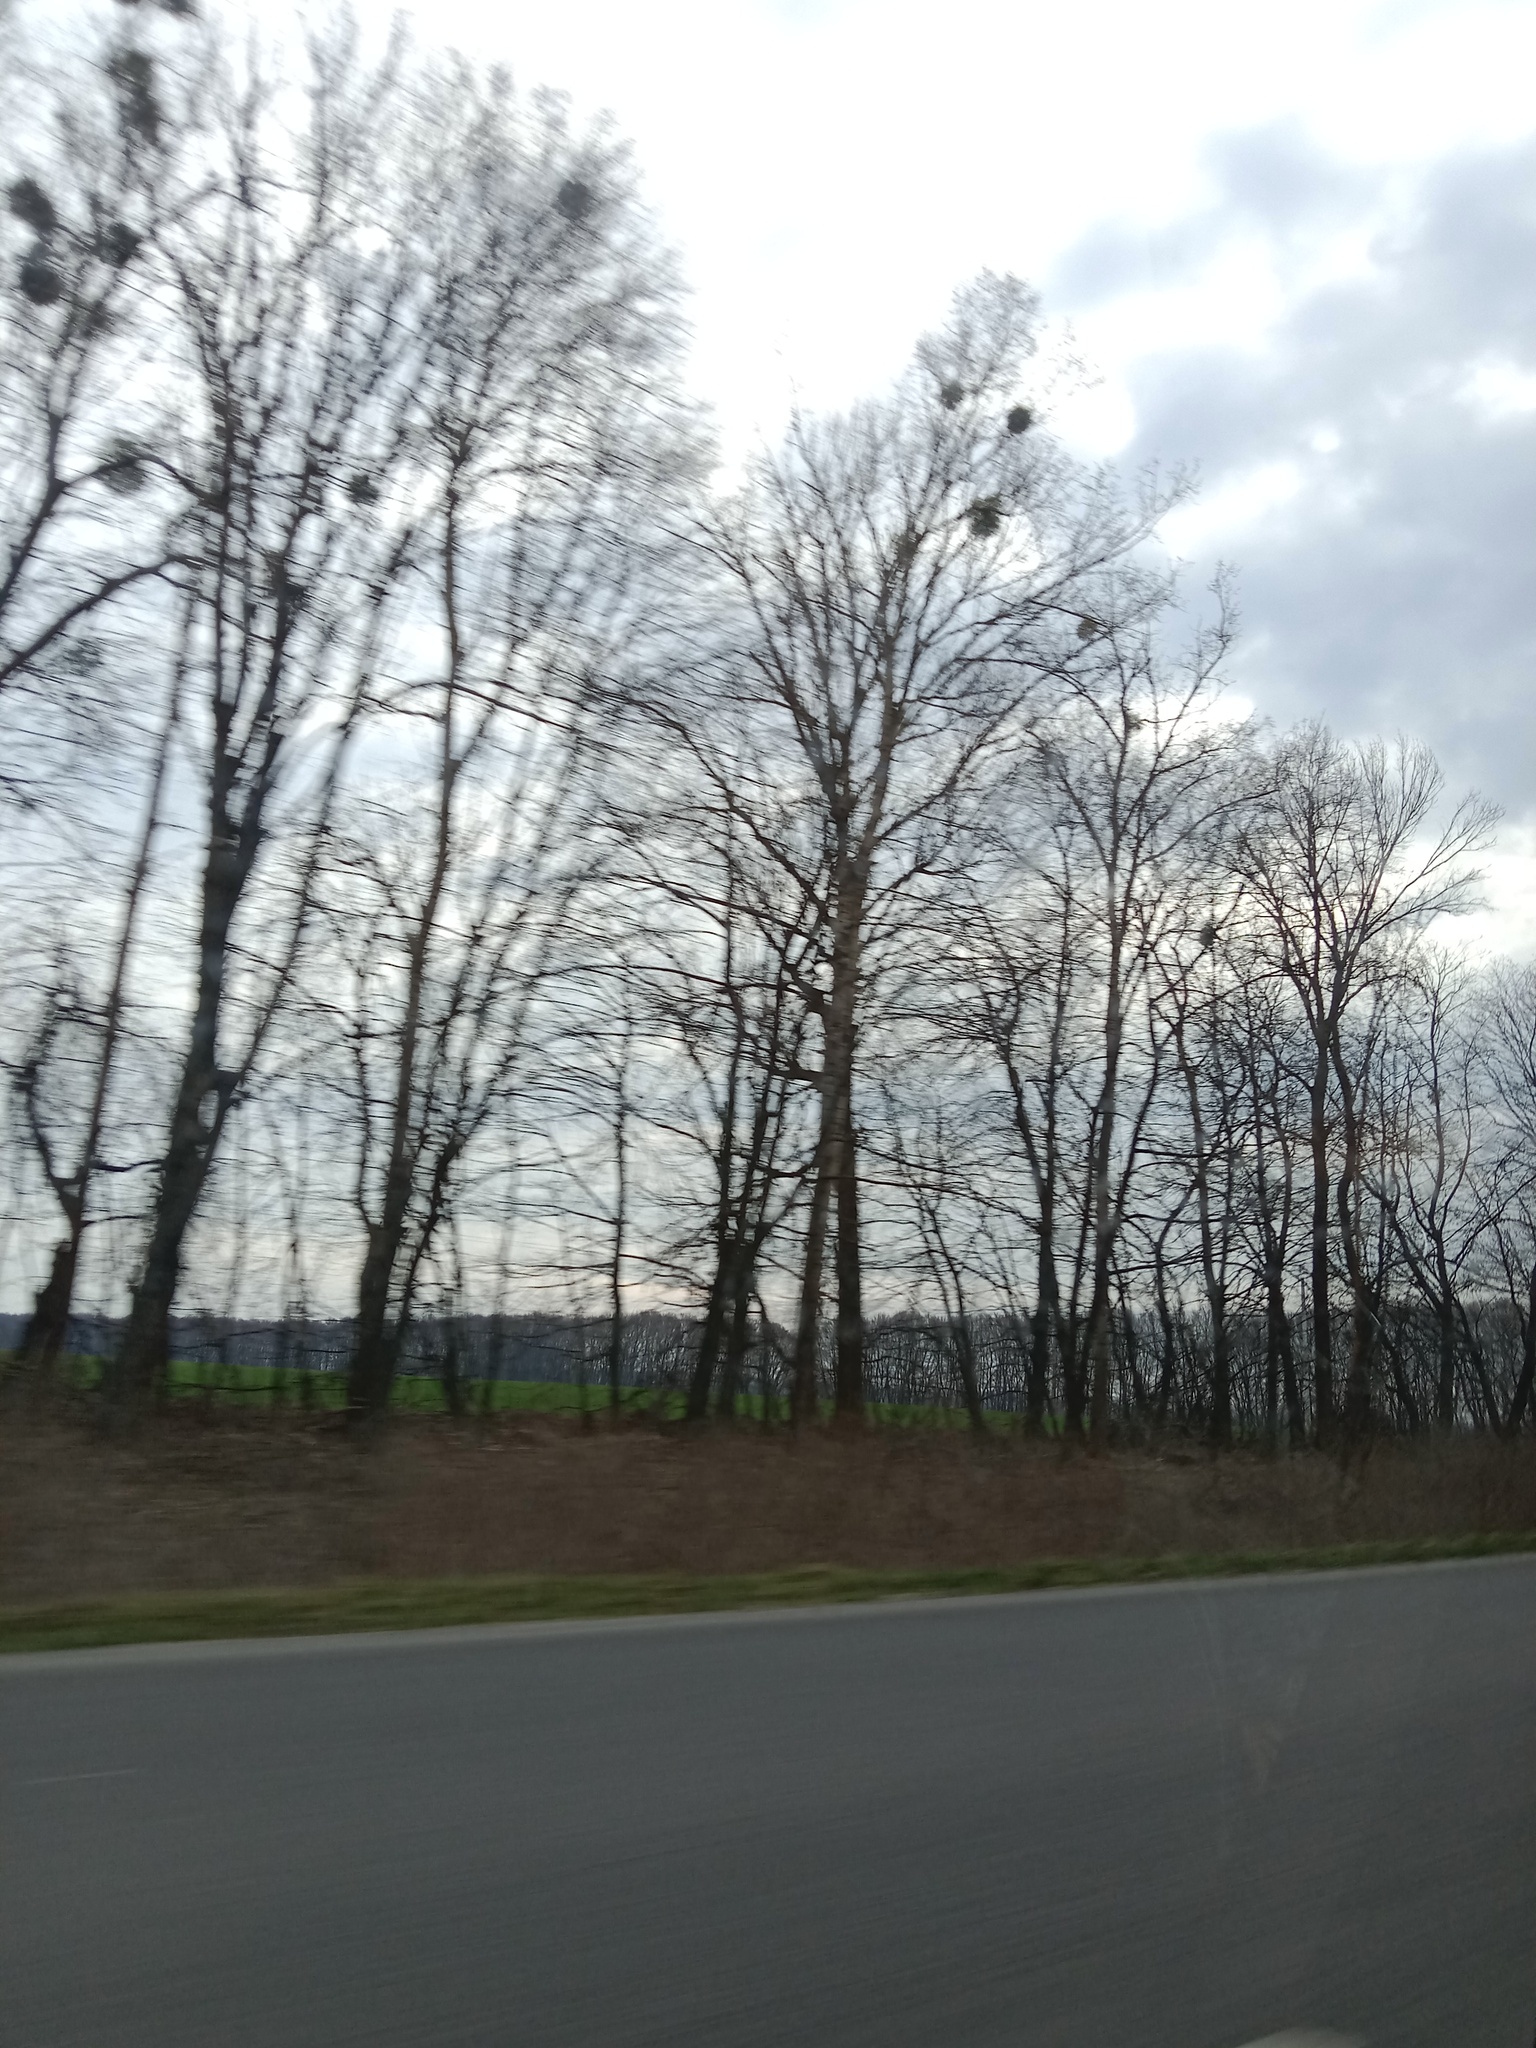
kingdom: Plantae
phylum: Tracheophyta
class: Magnoliopsida
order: Santalales
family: Viscaceae
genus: Viscum
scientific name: Viscum album
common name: Mistletoe
